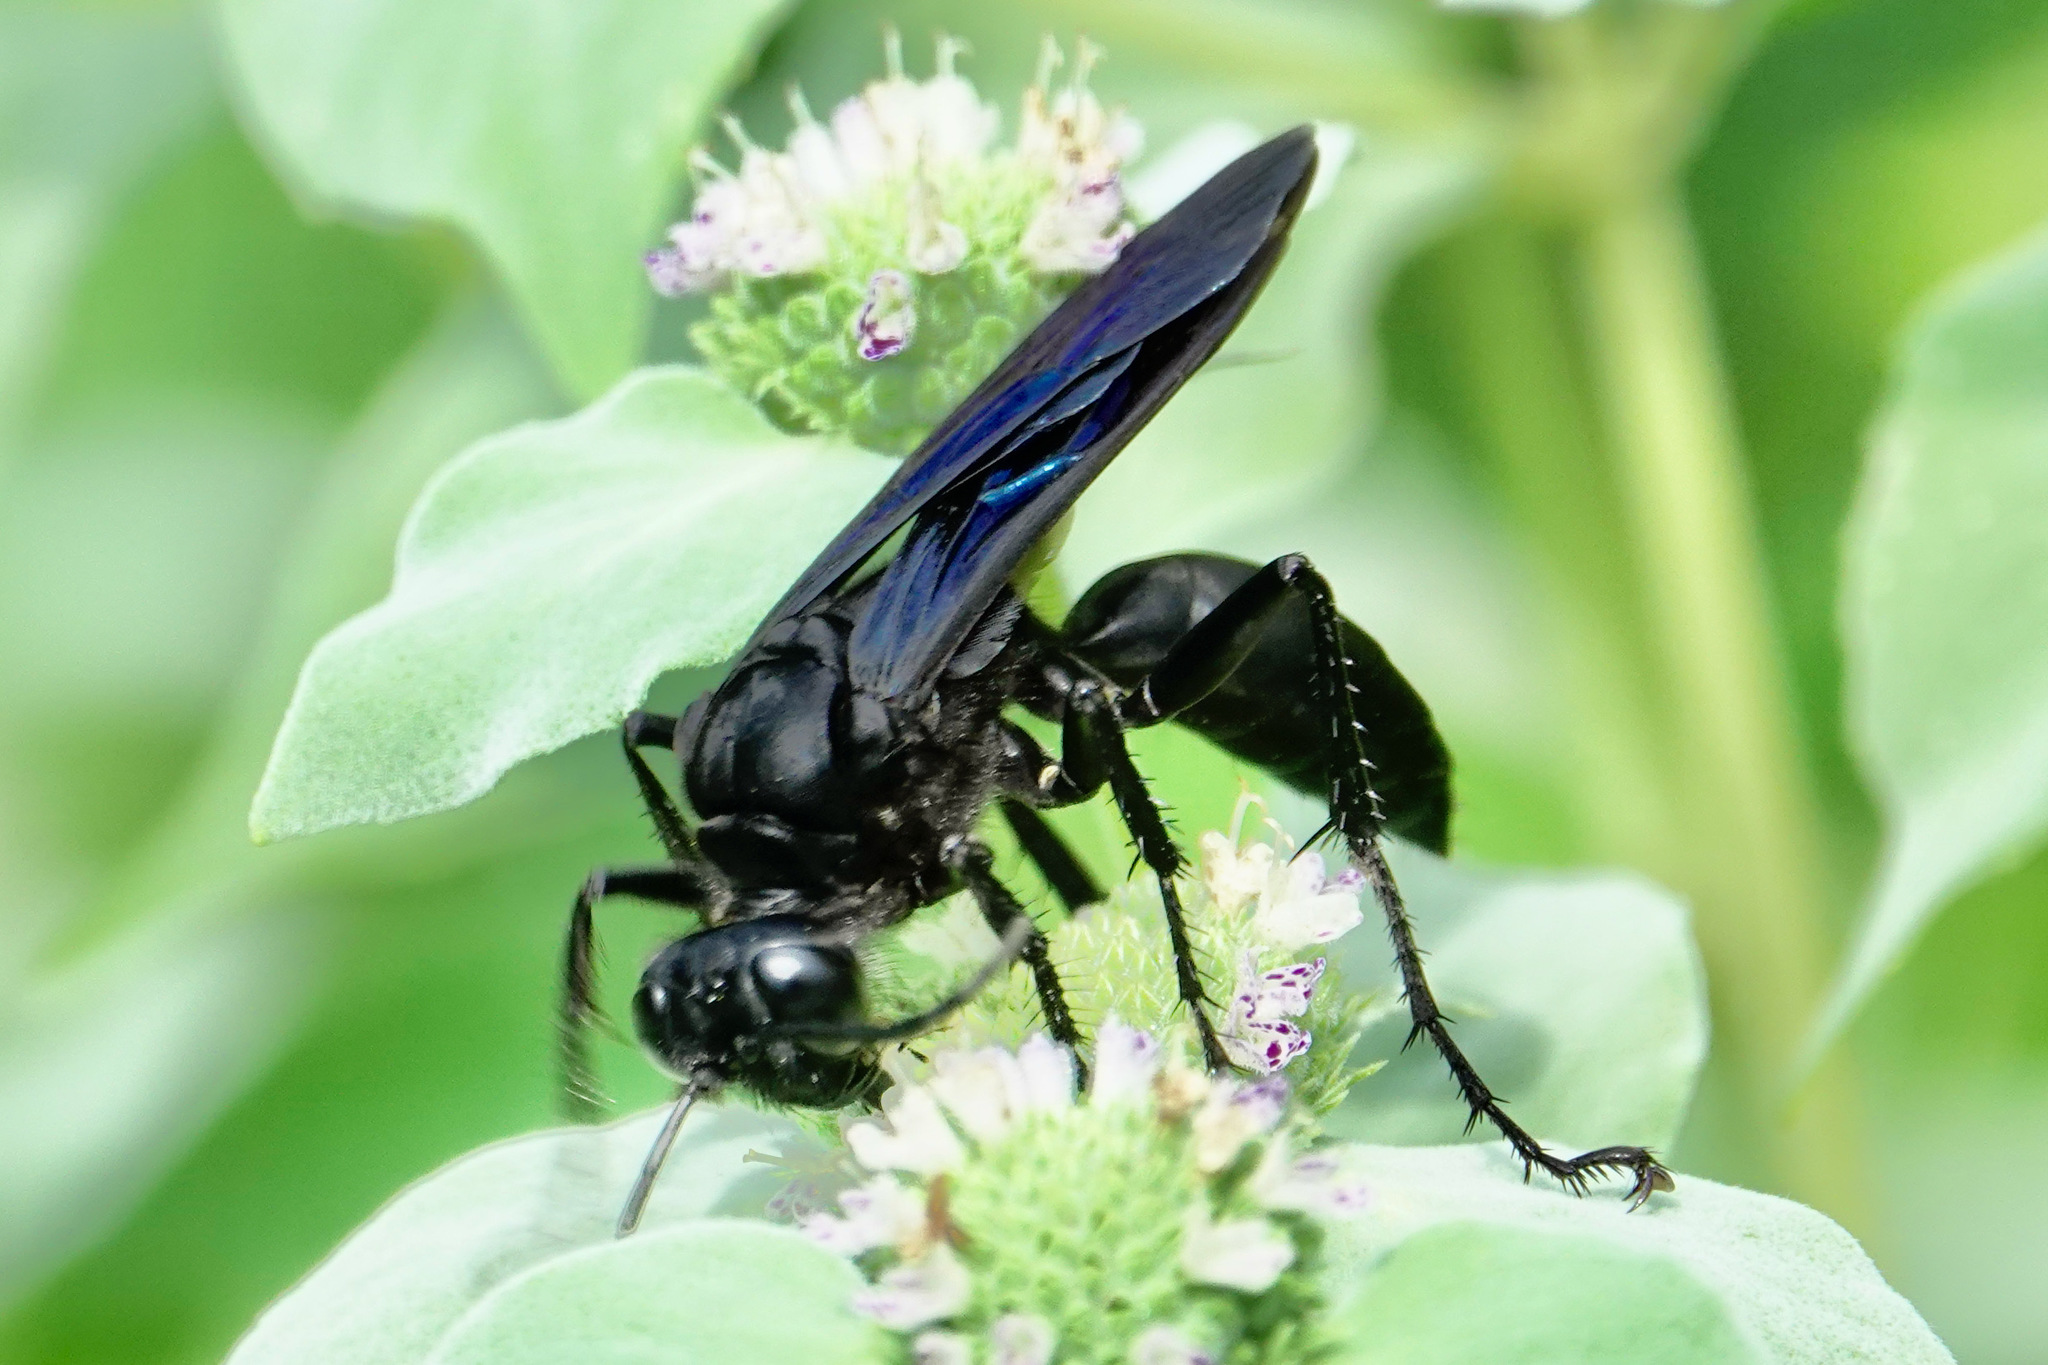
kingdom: Animalia
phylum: Arthropoda
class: Insecta
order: Hymenoptera
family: Sphecidae
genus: Sphex
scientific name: Sphex pensylvanicus
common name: Great black digger wasp
